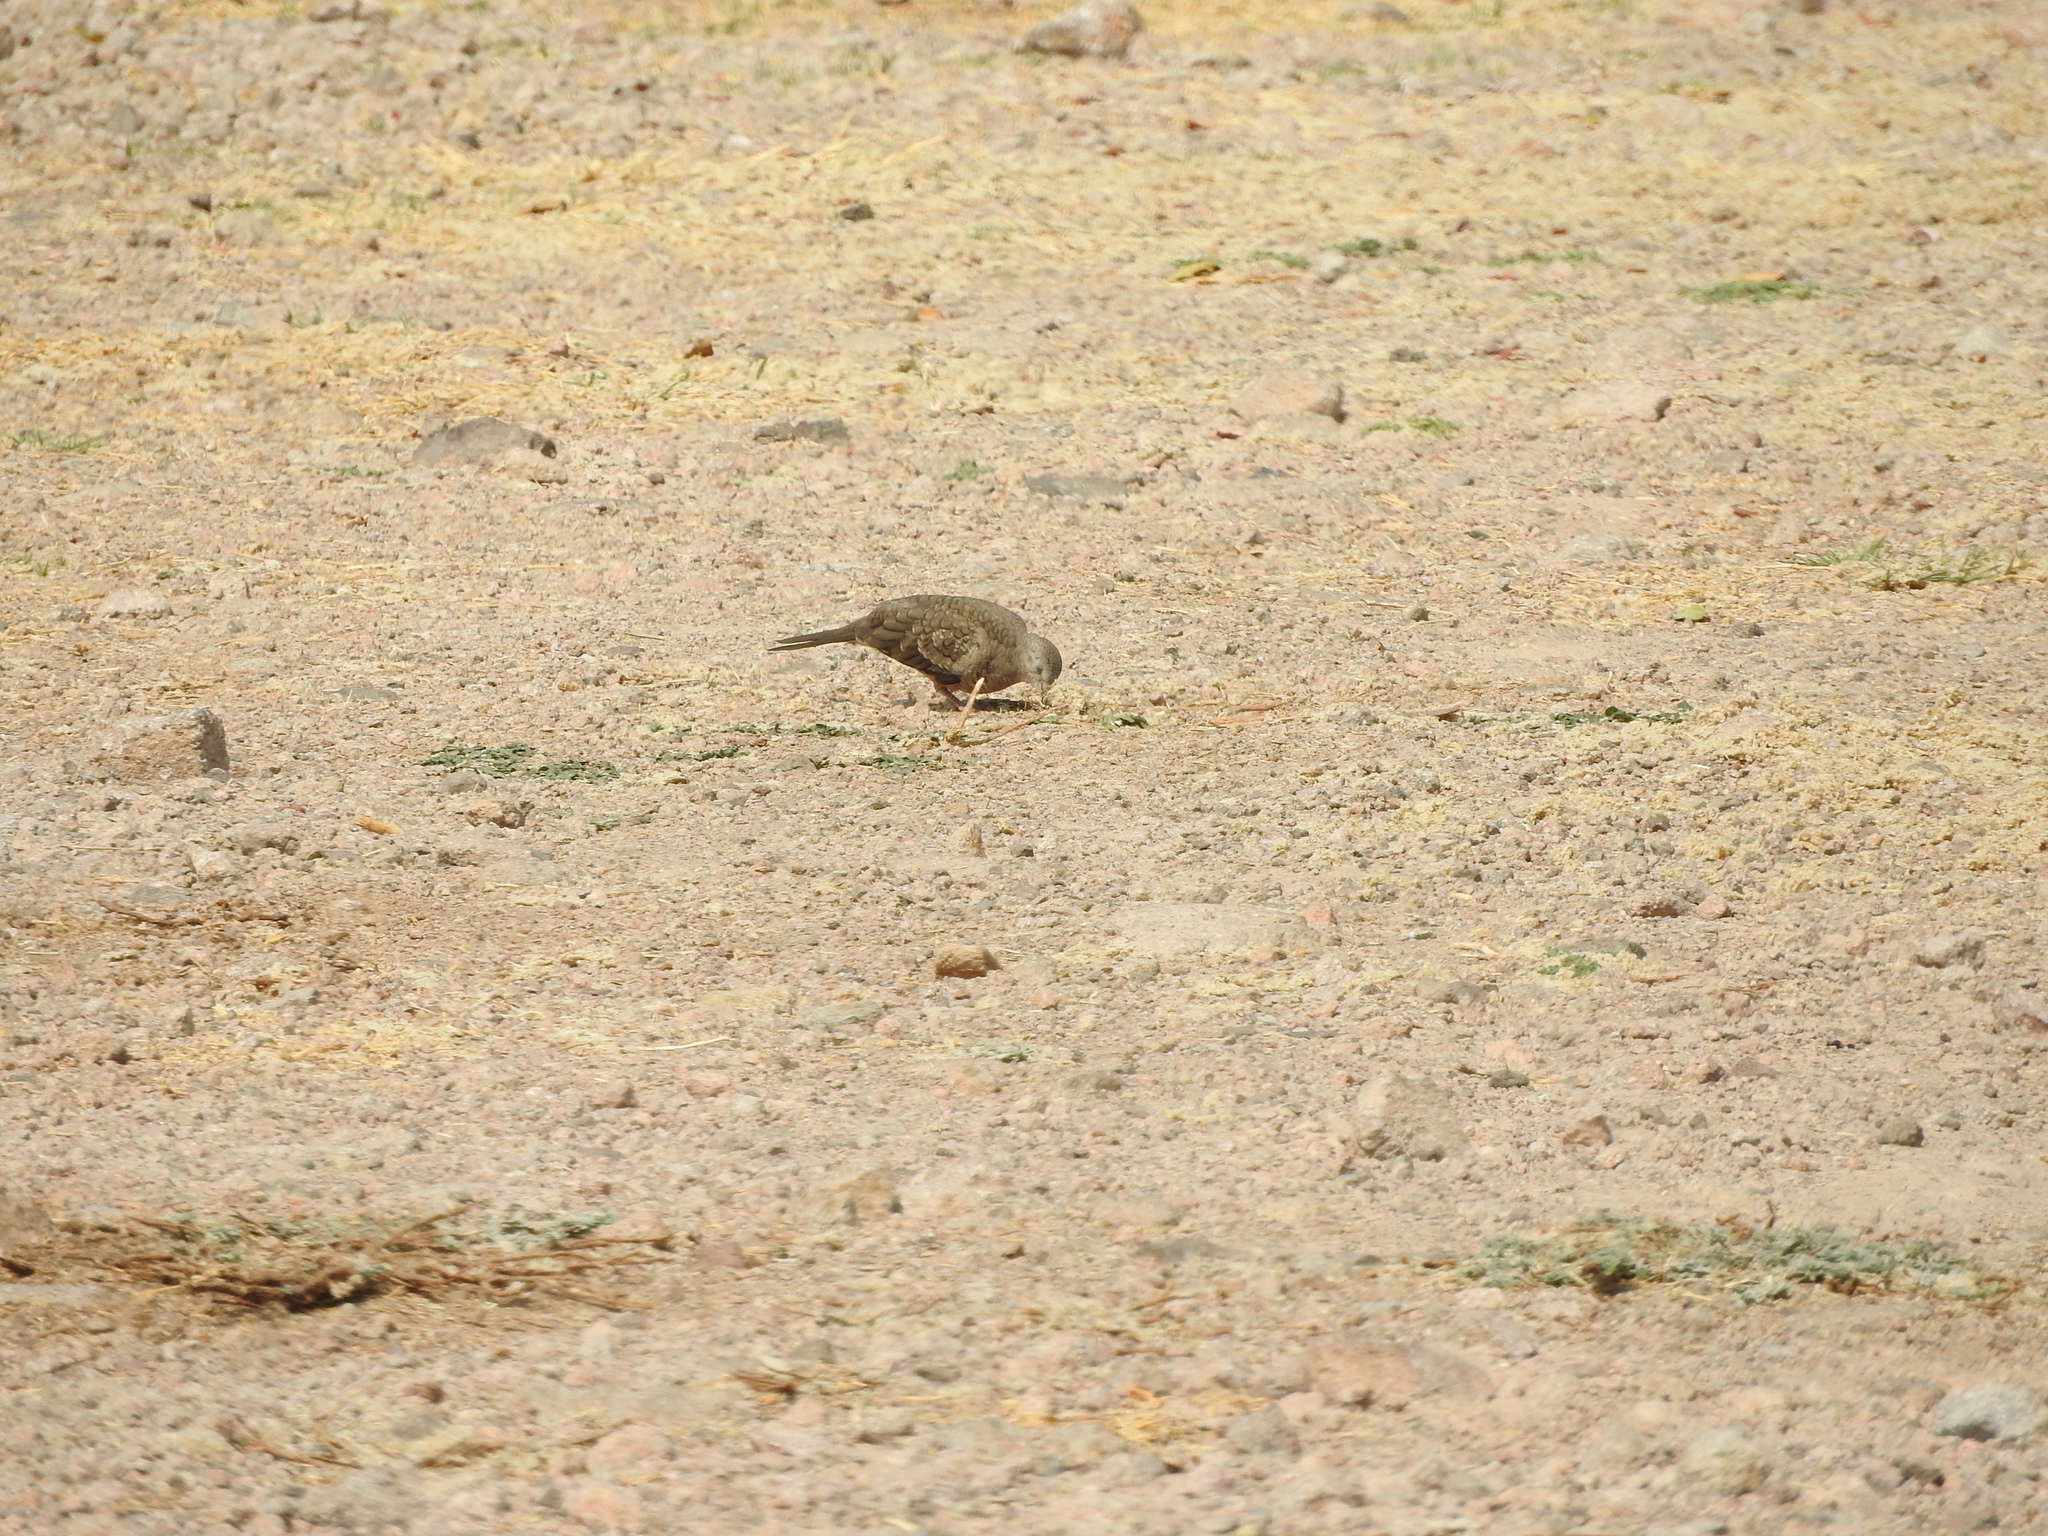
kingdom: Animalia
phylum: Chordata
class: Aves
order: Columbiformes
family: Columbidae
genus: Columbina
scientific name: Columbina inca
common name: Inca dove
